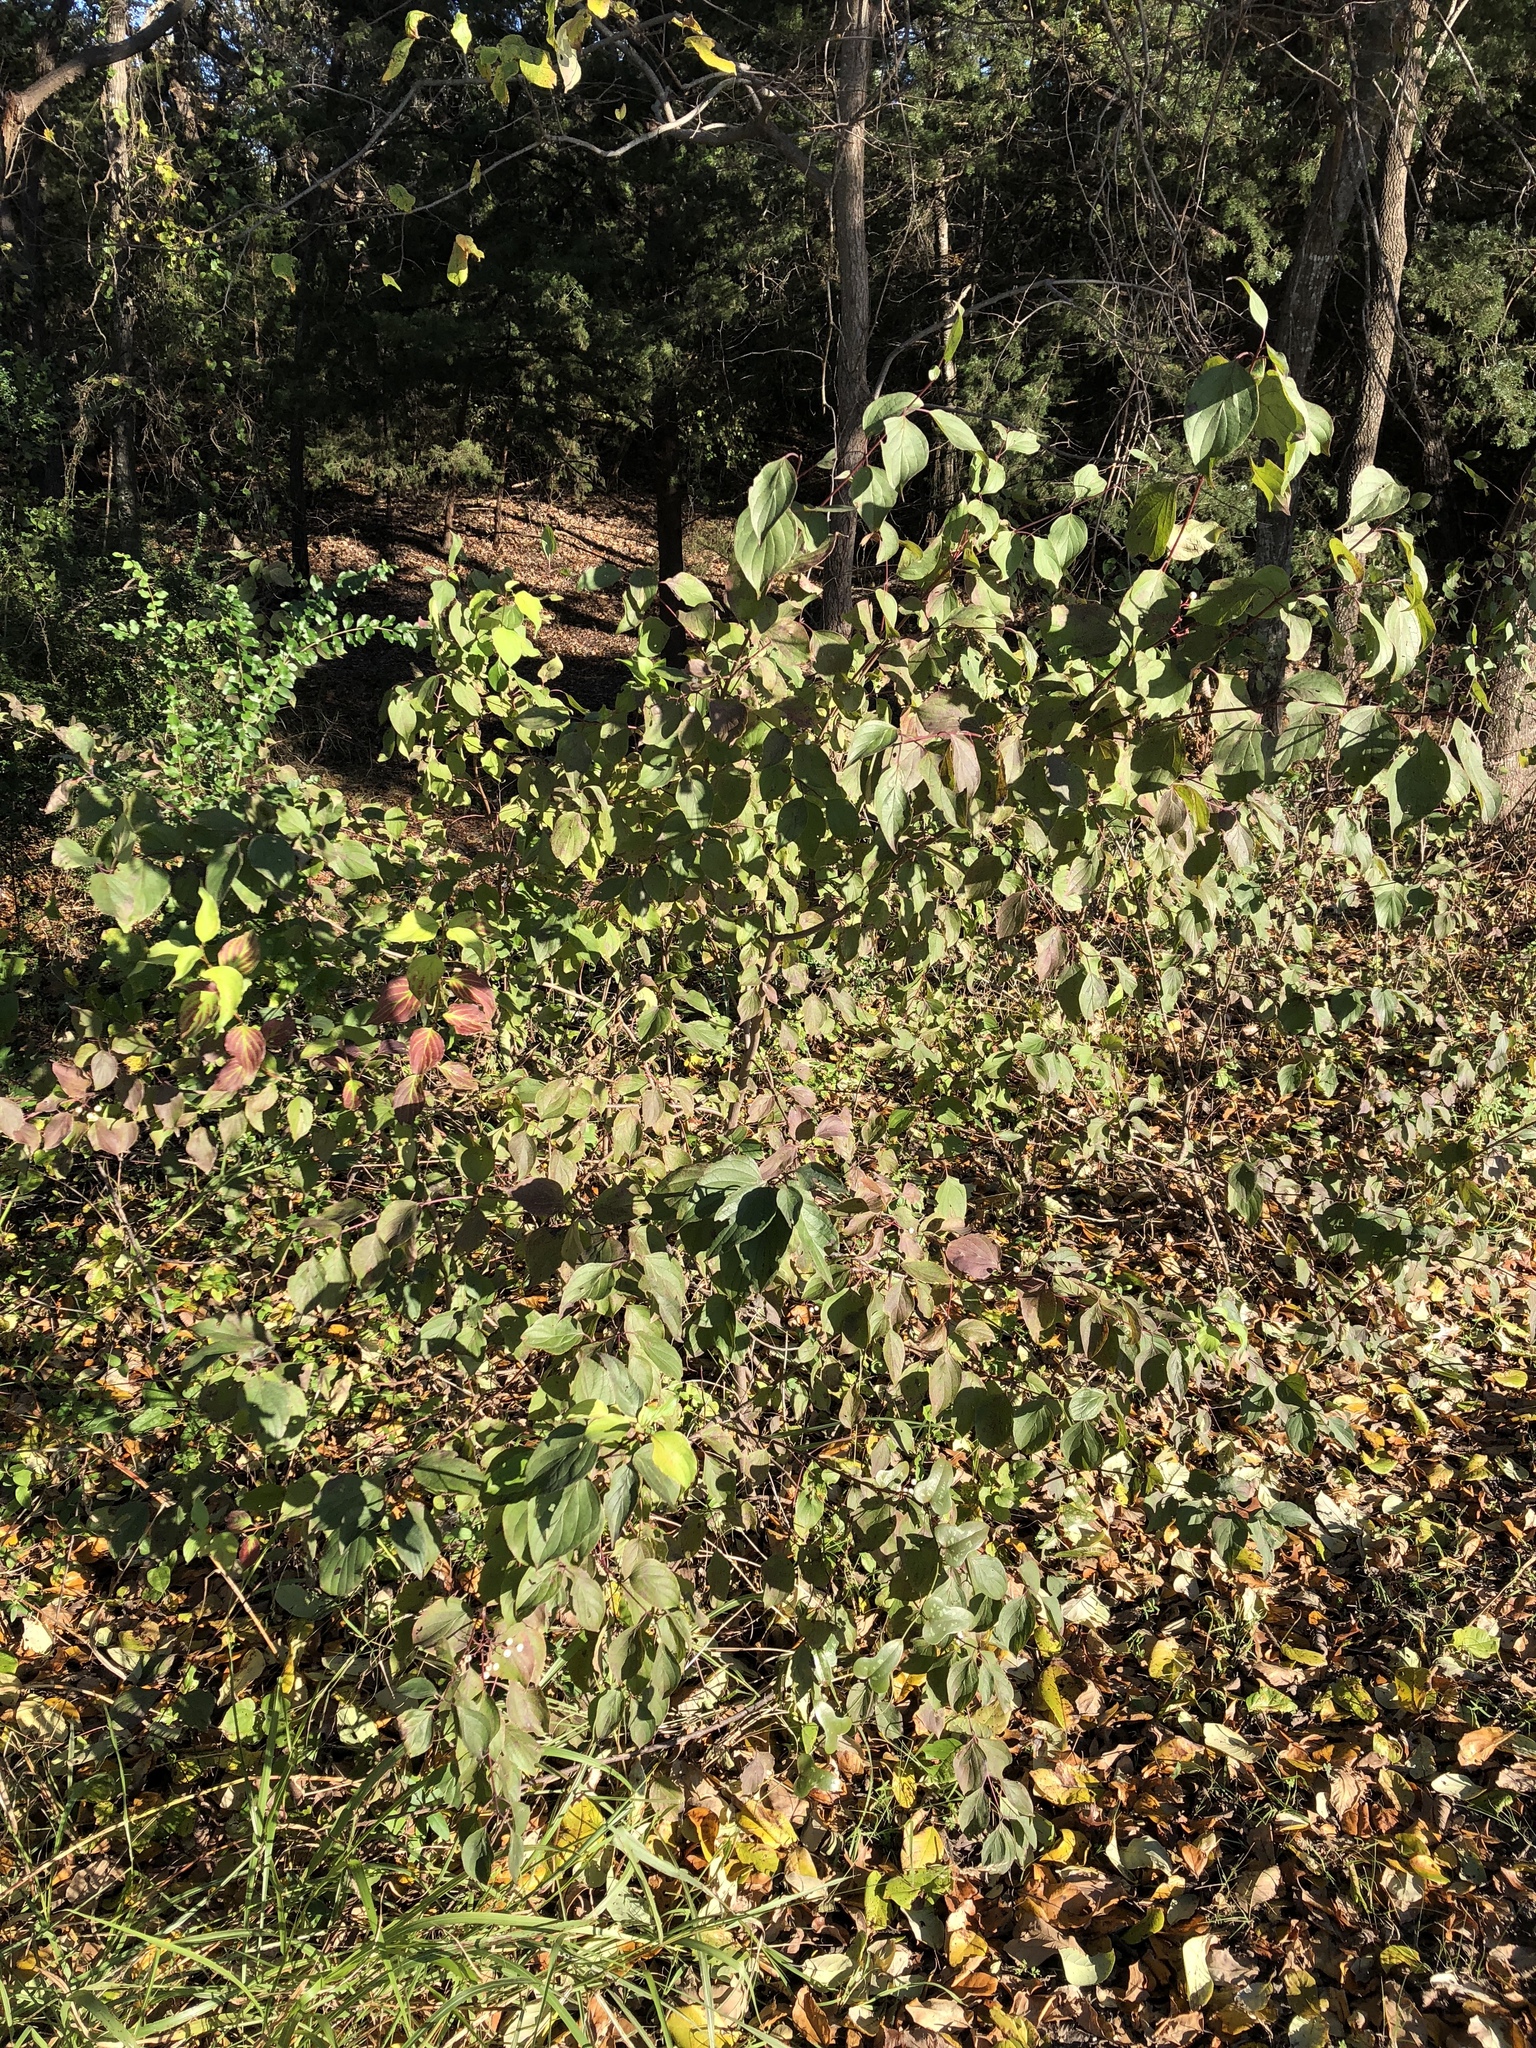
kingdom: Plantae
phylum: Tracheophyta
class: Magnoliopsida
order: Cornales
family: Cornaceae
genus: Cornus
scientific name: Cornus drummondii
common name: Rough-leaf dogwood
